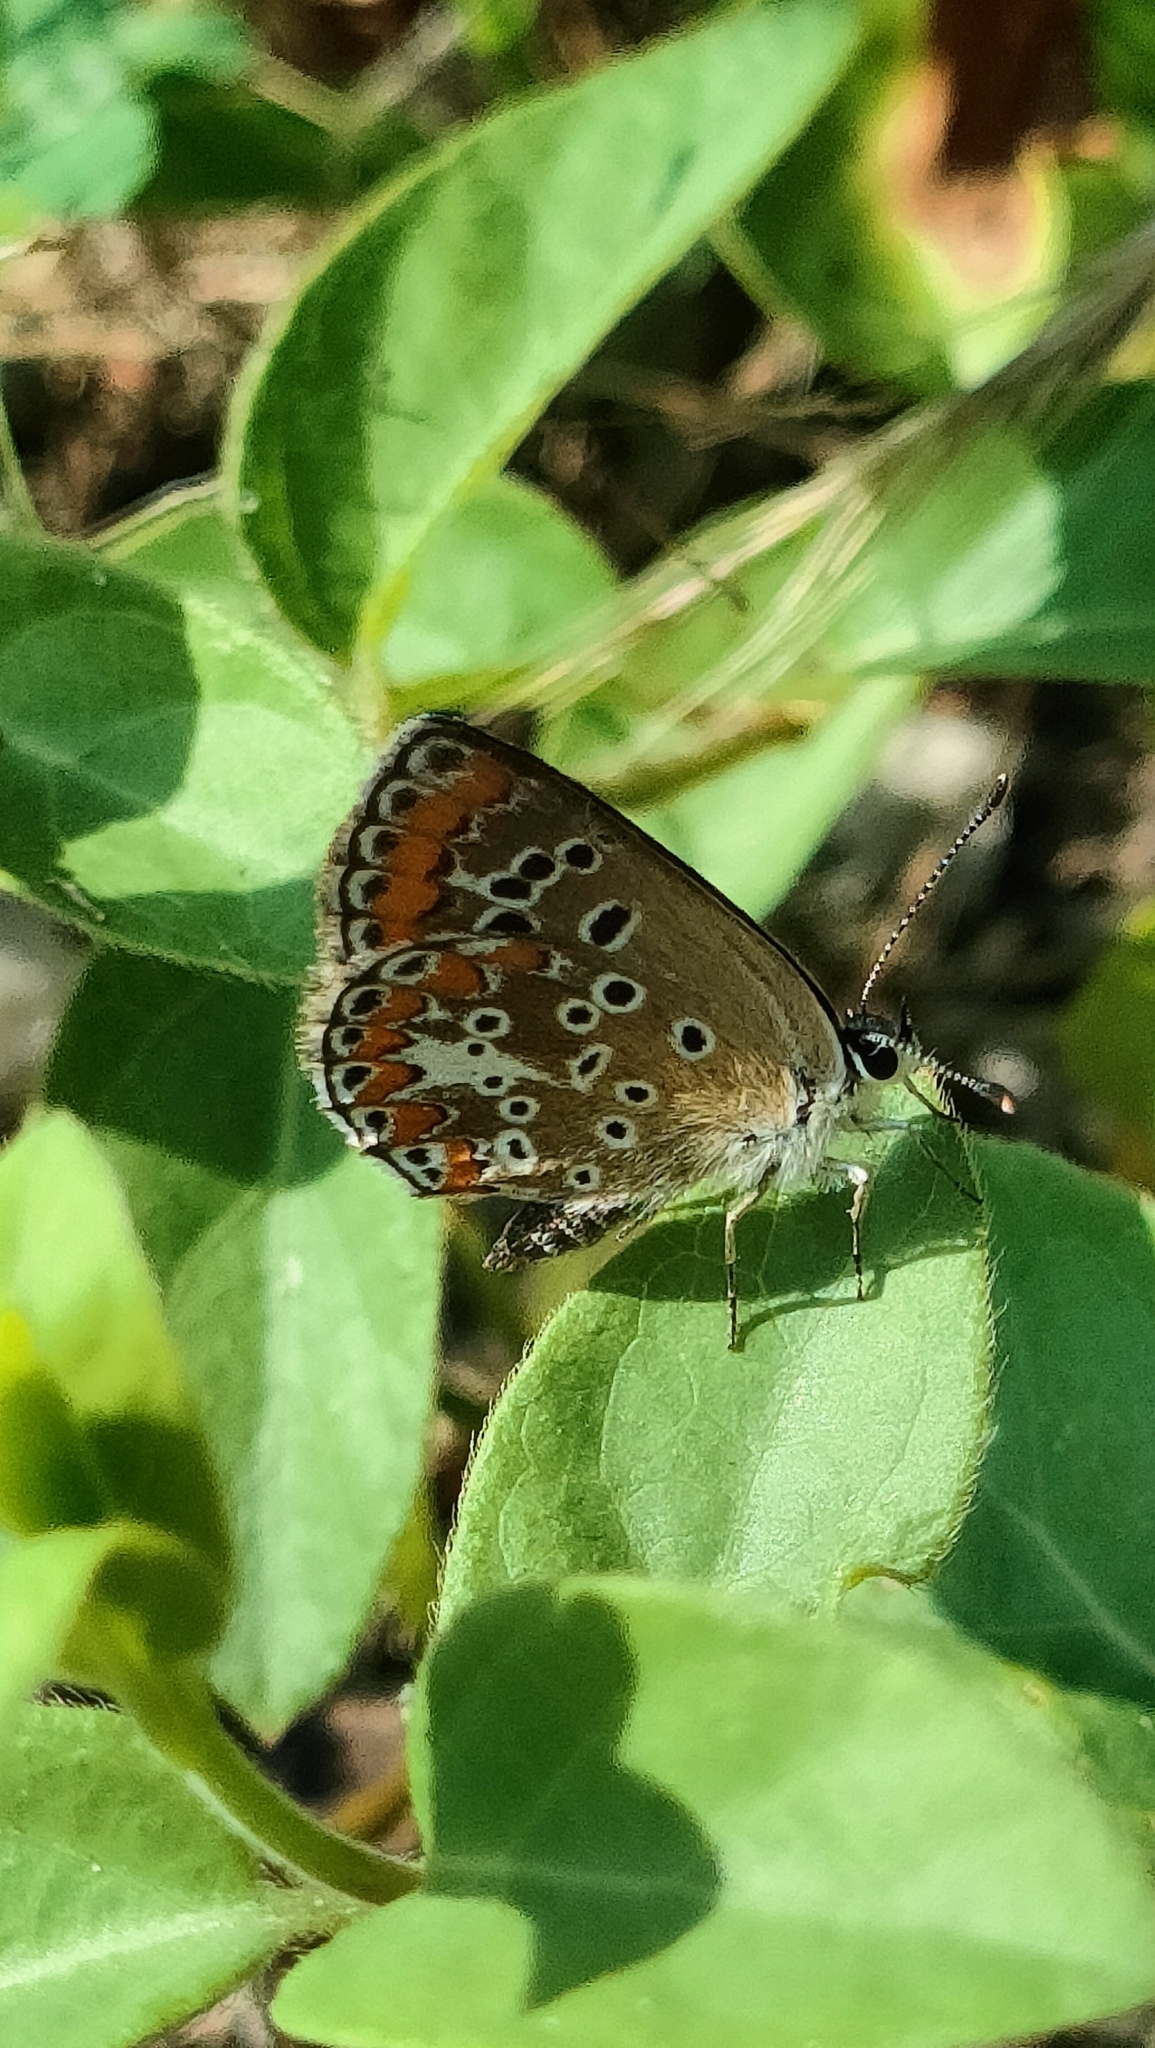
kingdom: Animalia
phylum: Arthropoda
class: Insecta
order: Lepidoptera
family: Lycaenidae
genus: Aricia
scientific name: Aricia agestis
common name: Brown argus
